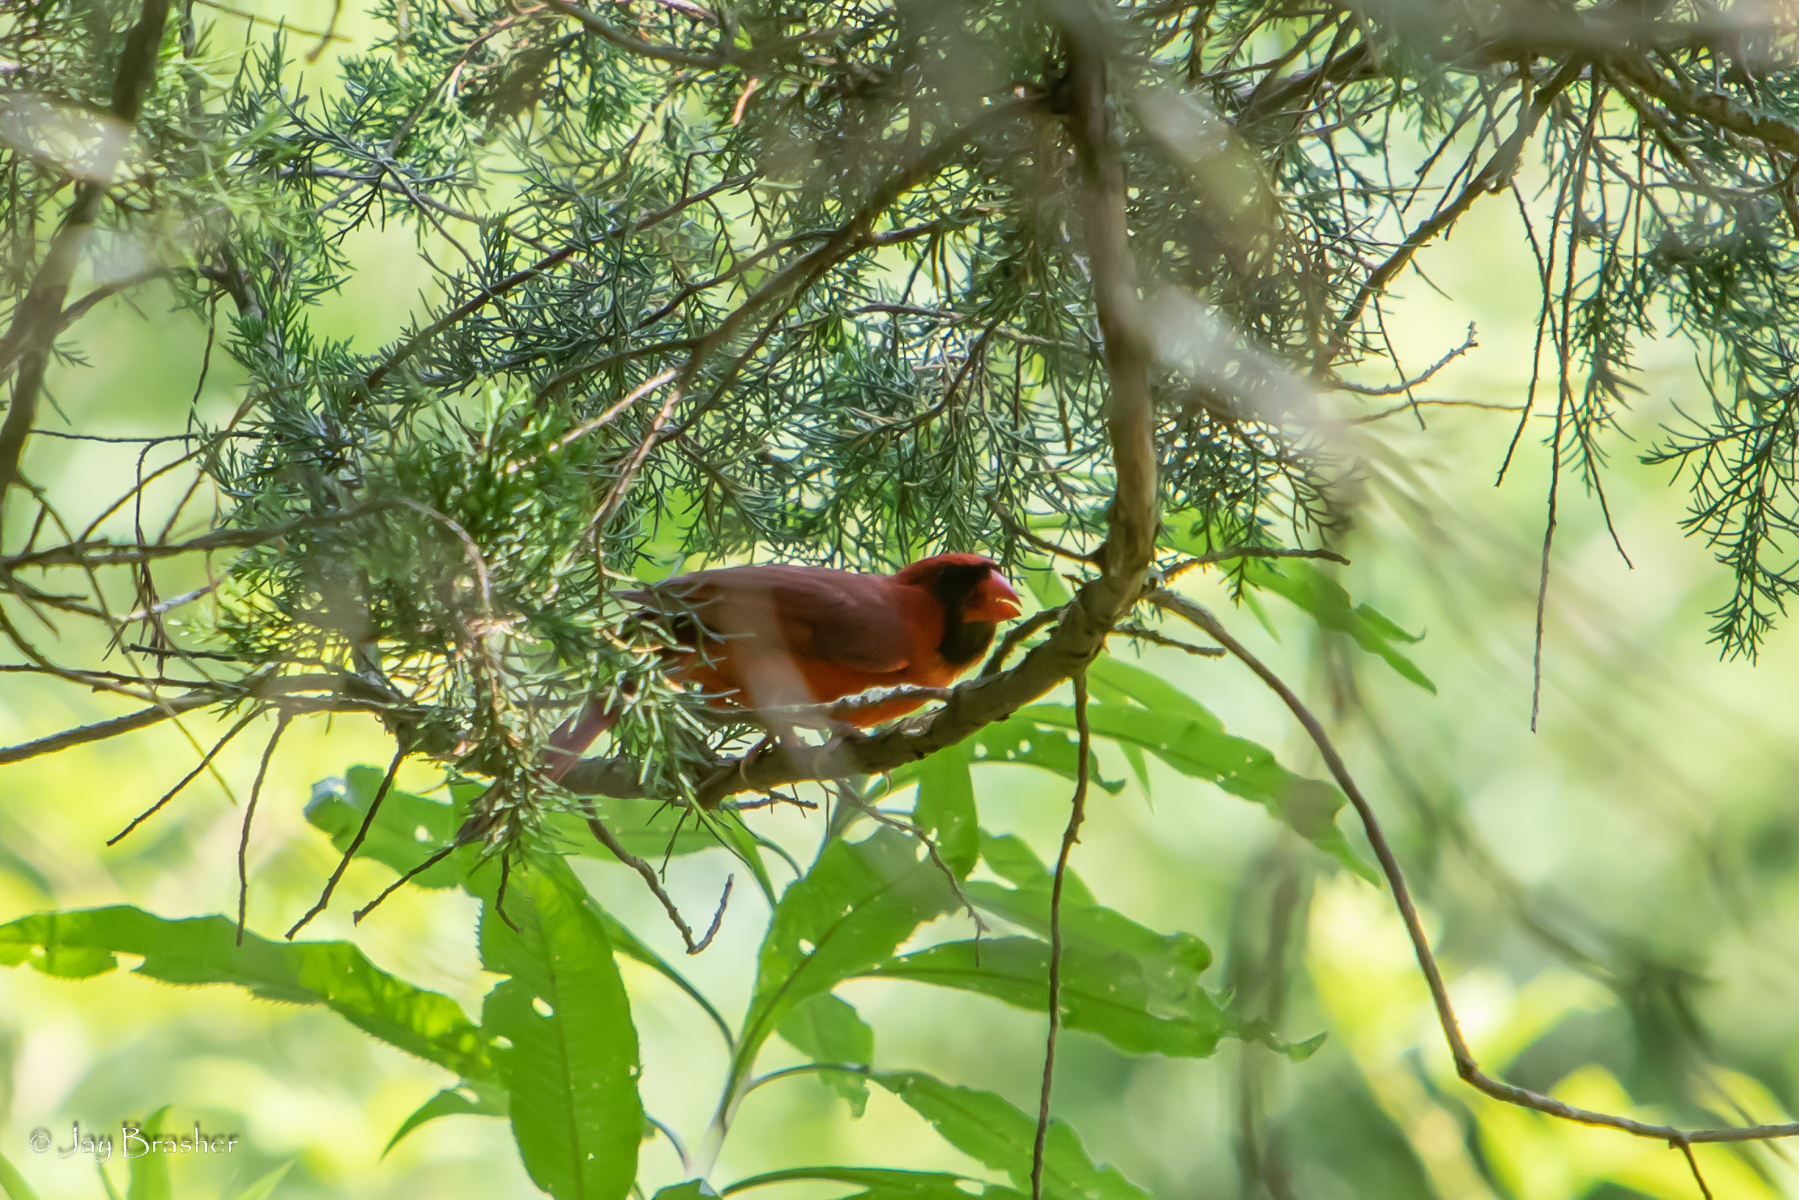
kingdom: Animalia
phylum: Chordata
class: Aves
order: Passeriformes
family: Cardinalidae
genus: Cardinalis
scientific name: Cardinalis cardinalis
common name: Northern cardinal
